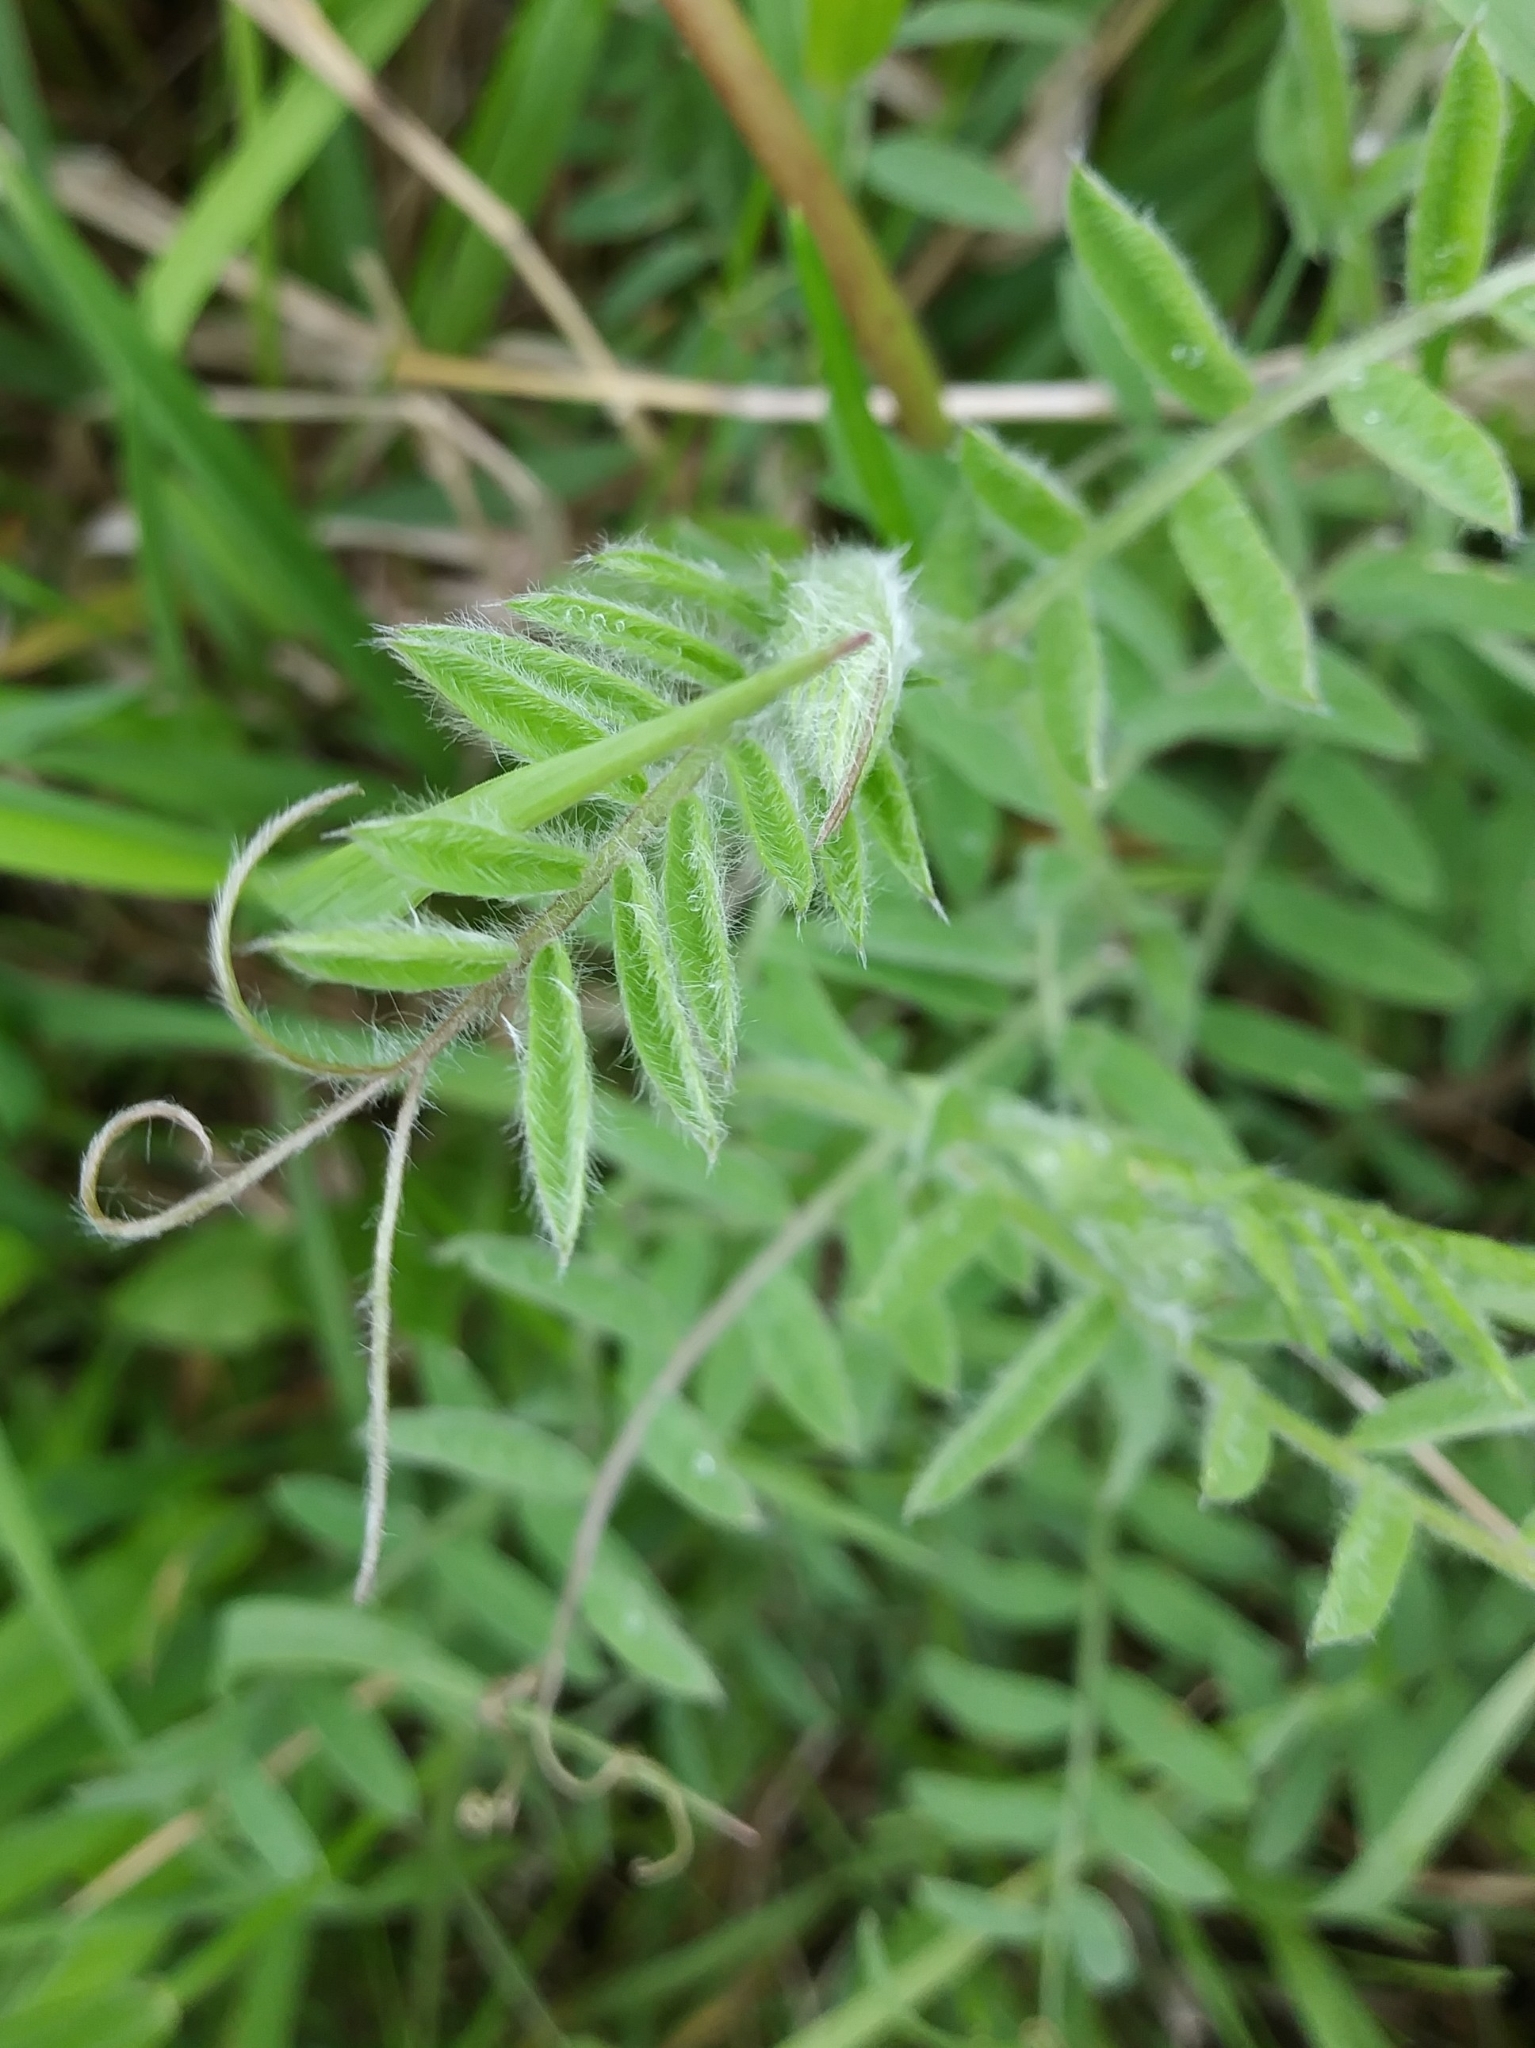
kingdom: Plantae
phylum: Tracheophyta
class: Magnoliopsida
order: Fabales
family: Fabaceae
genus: Vicia
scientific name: Vicia villosa
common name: Fodder vetch
